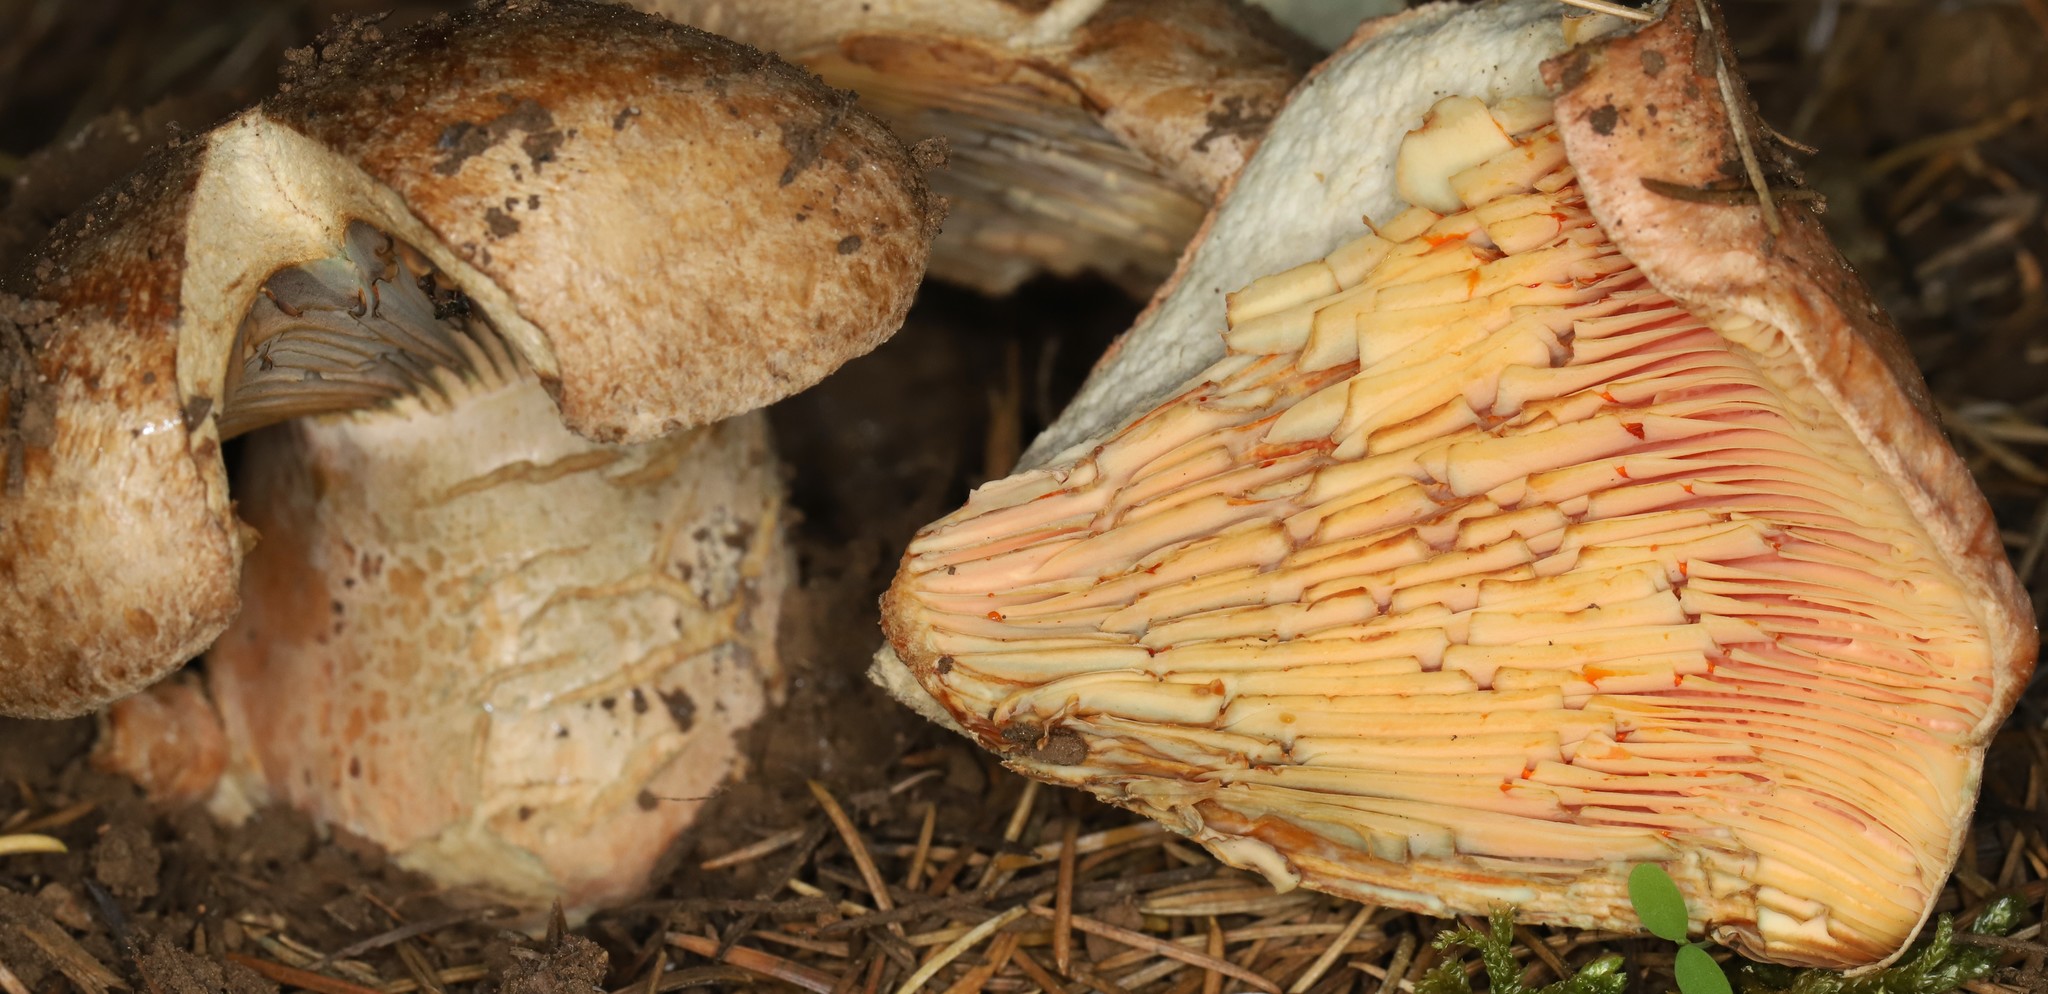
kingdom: Fungi
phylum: Basidiomycota
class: Agaricomycetes
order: Russulales
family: Russulaceae
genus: Lactarius
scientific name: Lactarius deliciosus
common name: Saffron milk-cap
